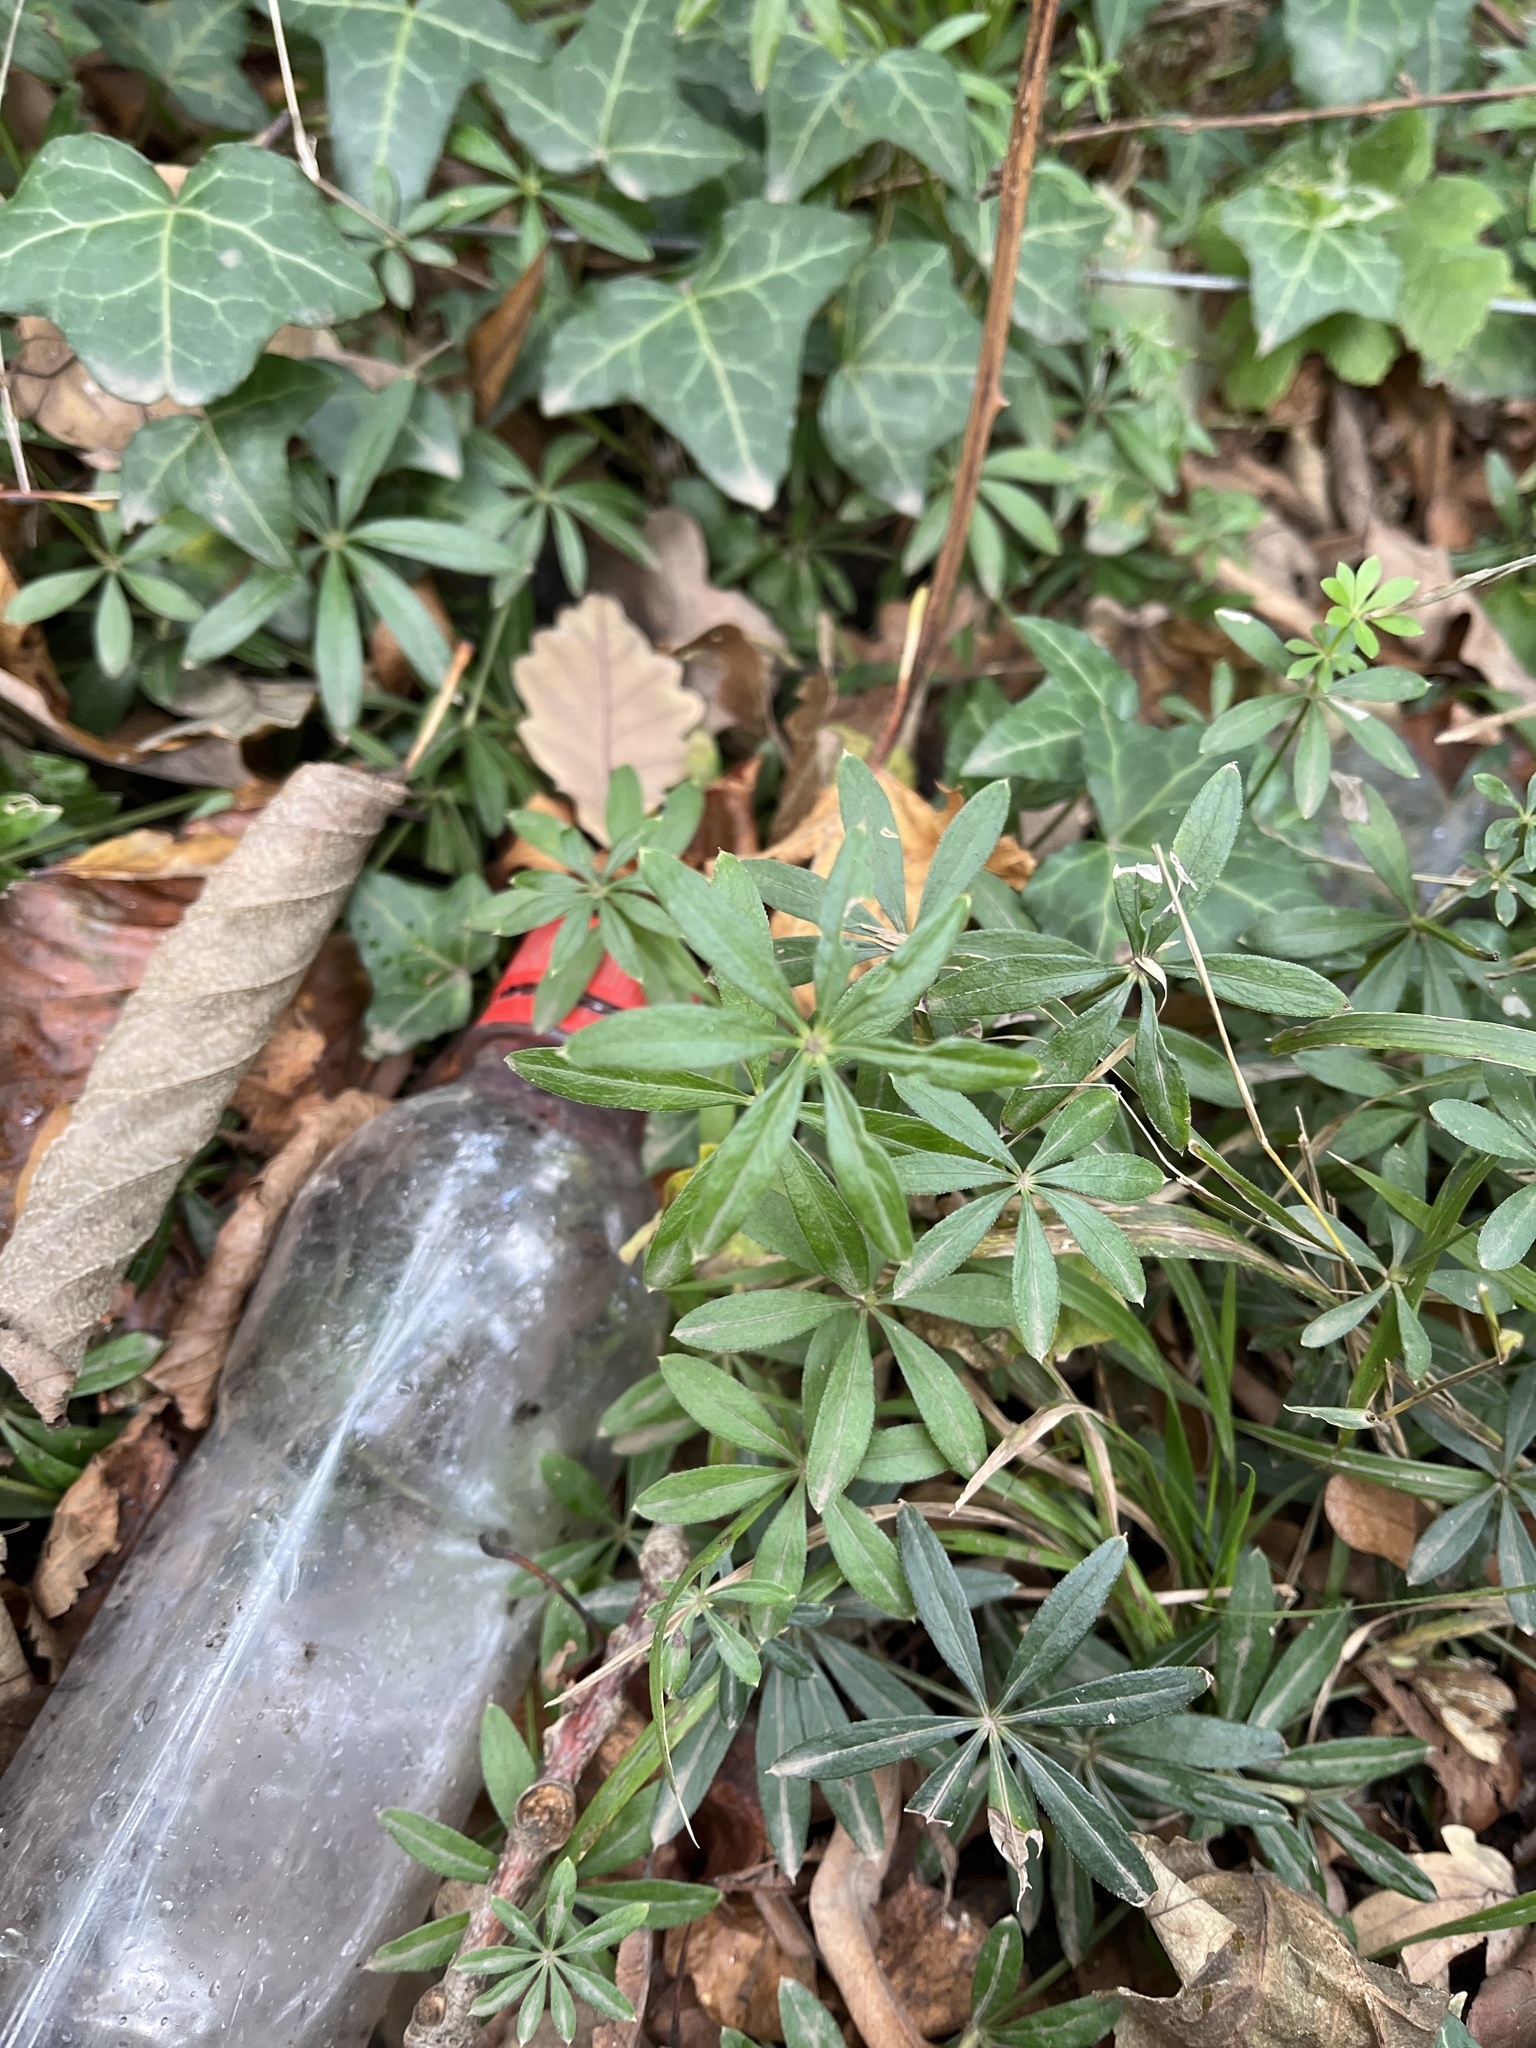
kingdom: Plantae
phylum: Tracheophyta
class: Magnoliopsida
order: Gentianales
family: Rubiaceae
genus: Galium
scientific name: Galium odoratum
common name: Sweet woodruff
